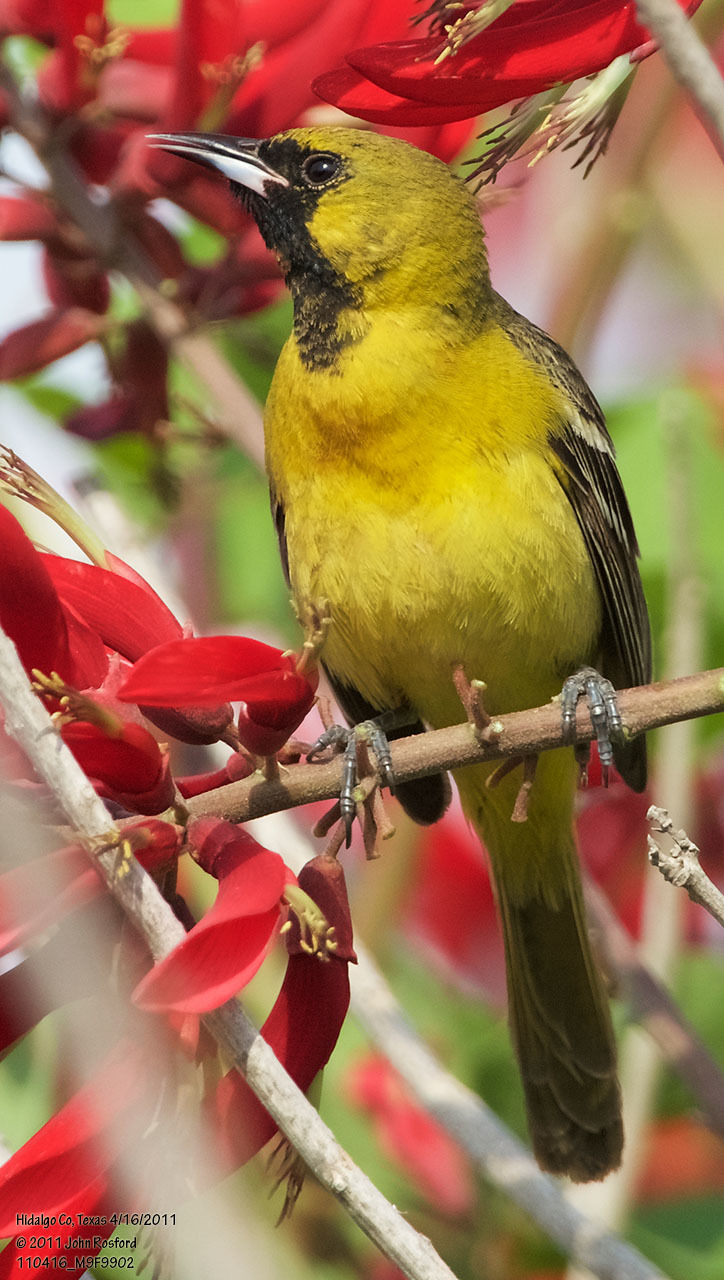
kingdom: Animalia
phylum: Chordata
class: Aves
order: Passeriformes
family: Icteridae
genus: Icterus
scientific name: Icterus spurius
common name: Orchard oriole
